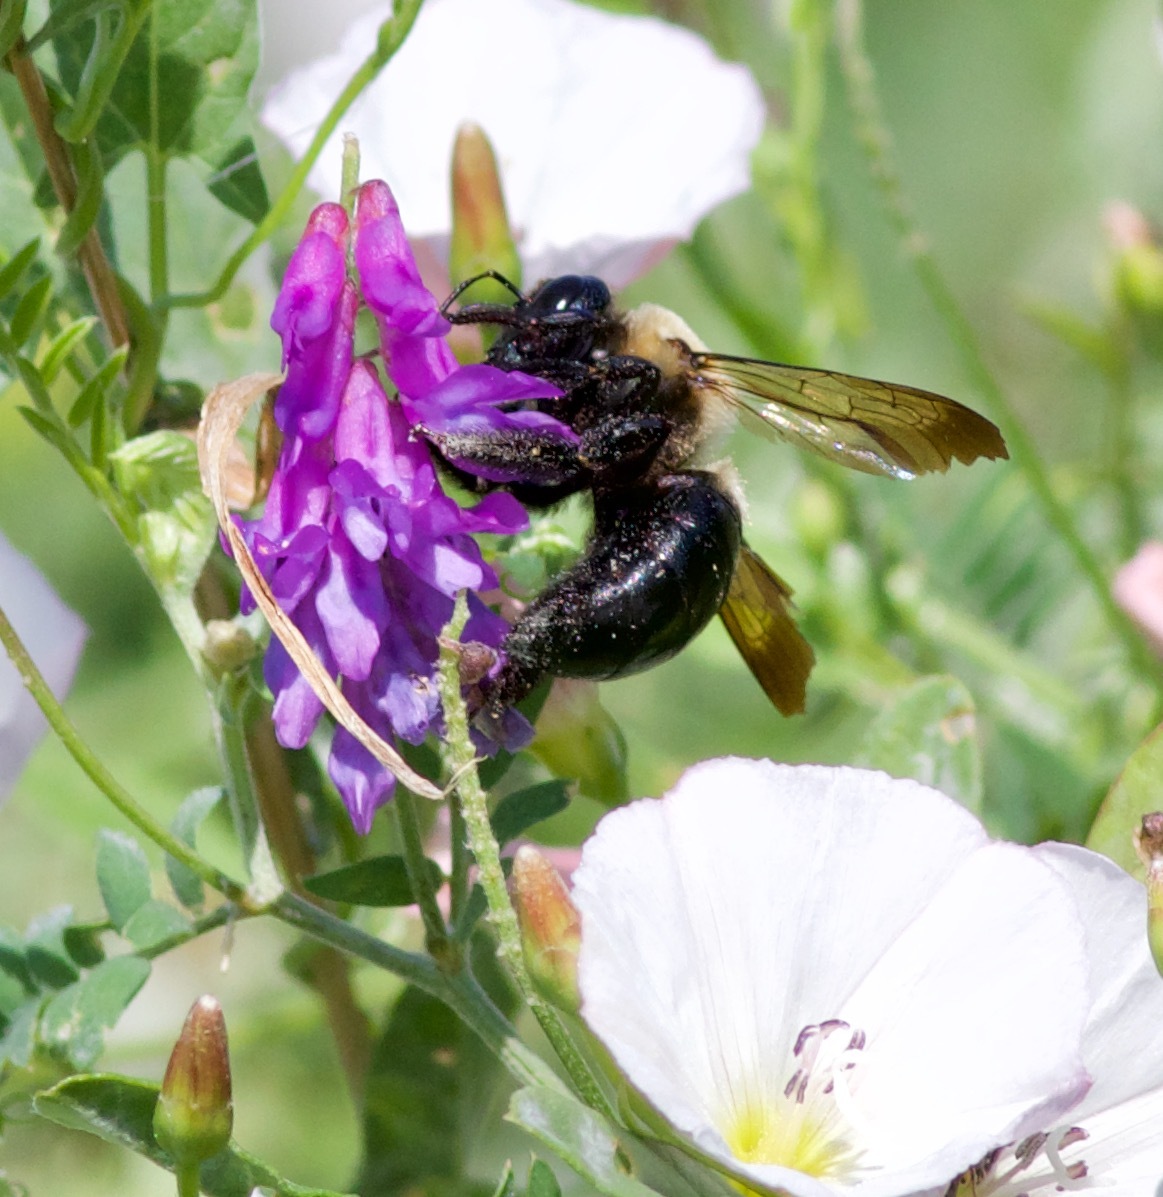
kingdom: Animalia
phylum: Arthropoda
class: Insecta
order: Hymenoptera
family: Apidae
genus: Xylocopa
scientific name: Xylocopa virginica
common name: Carpenter bee
